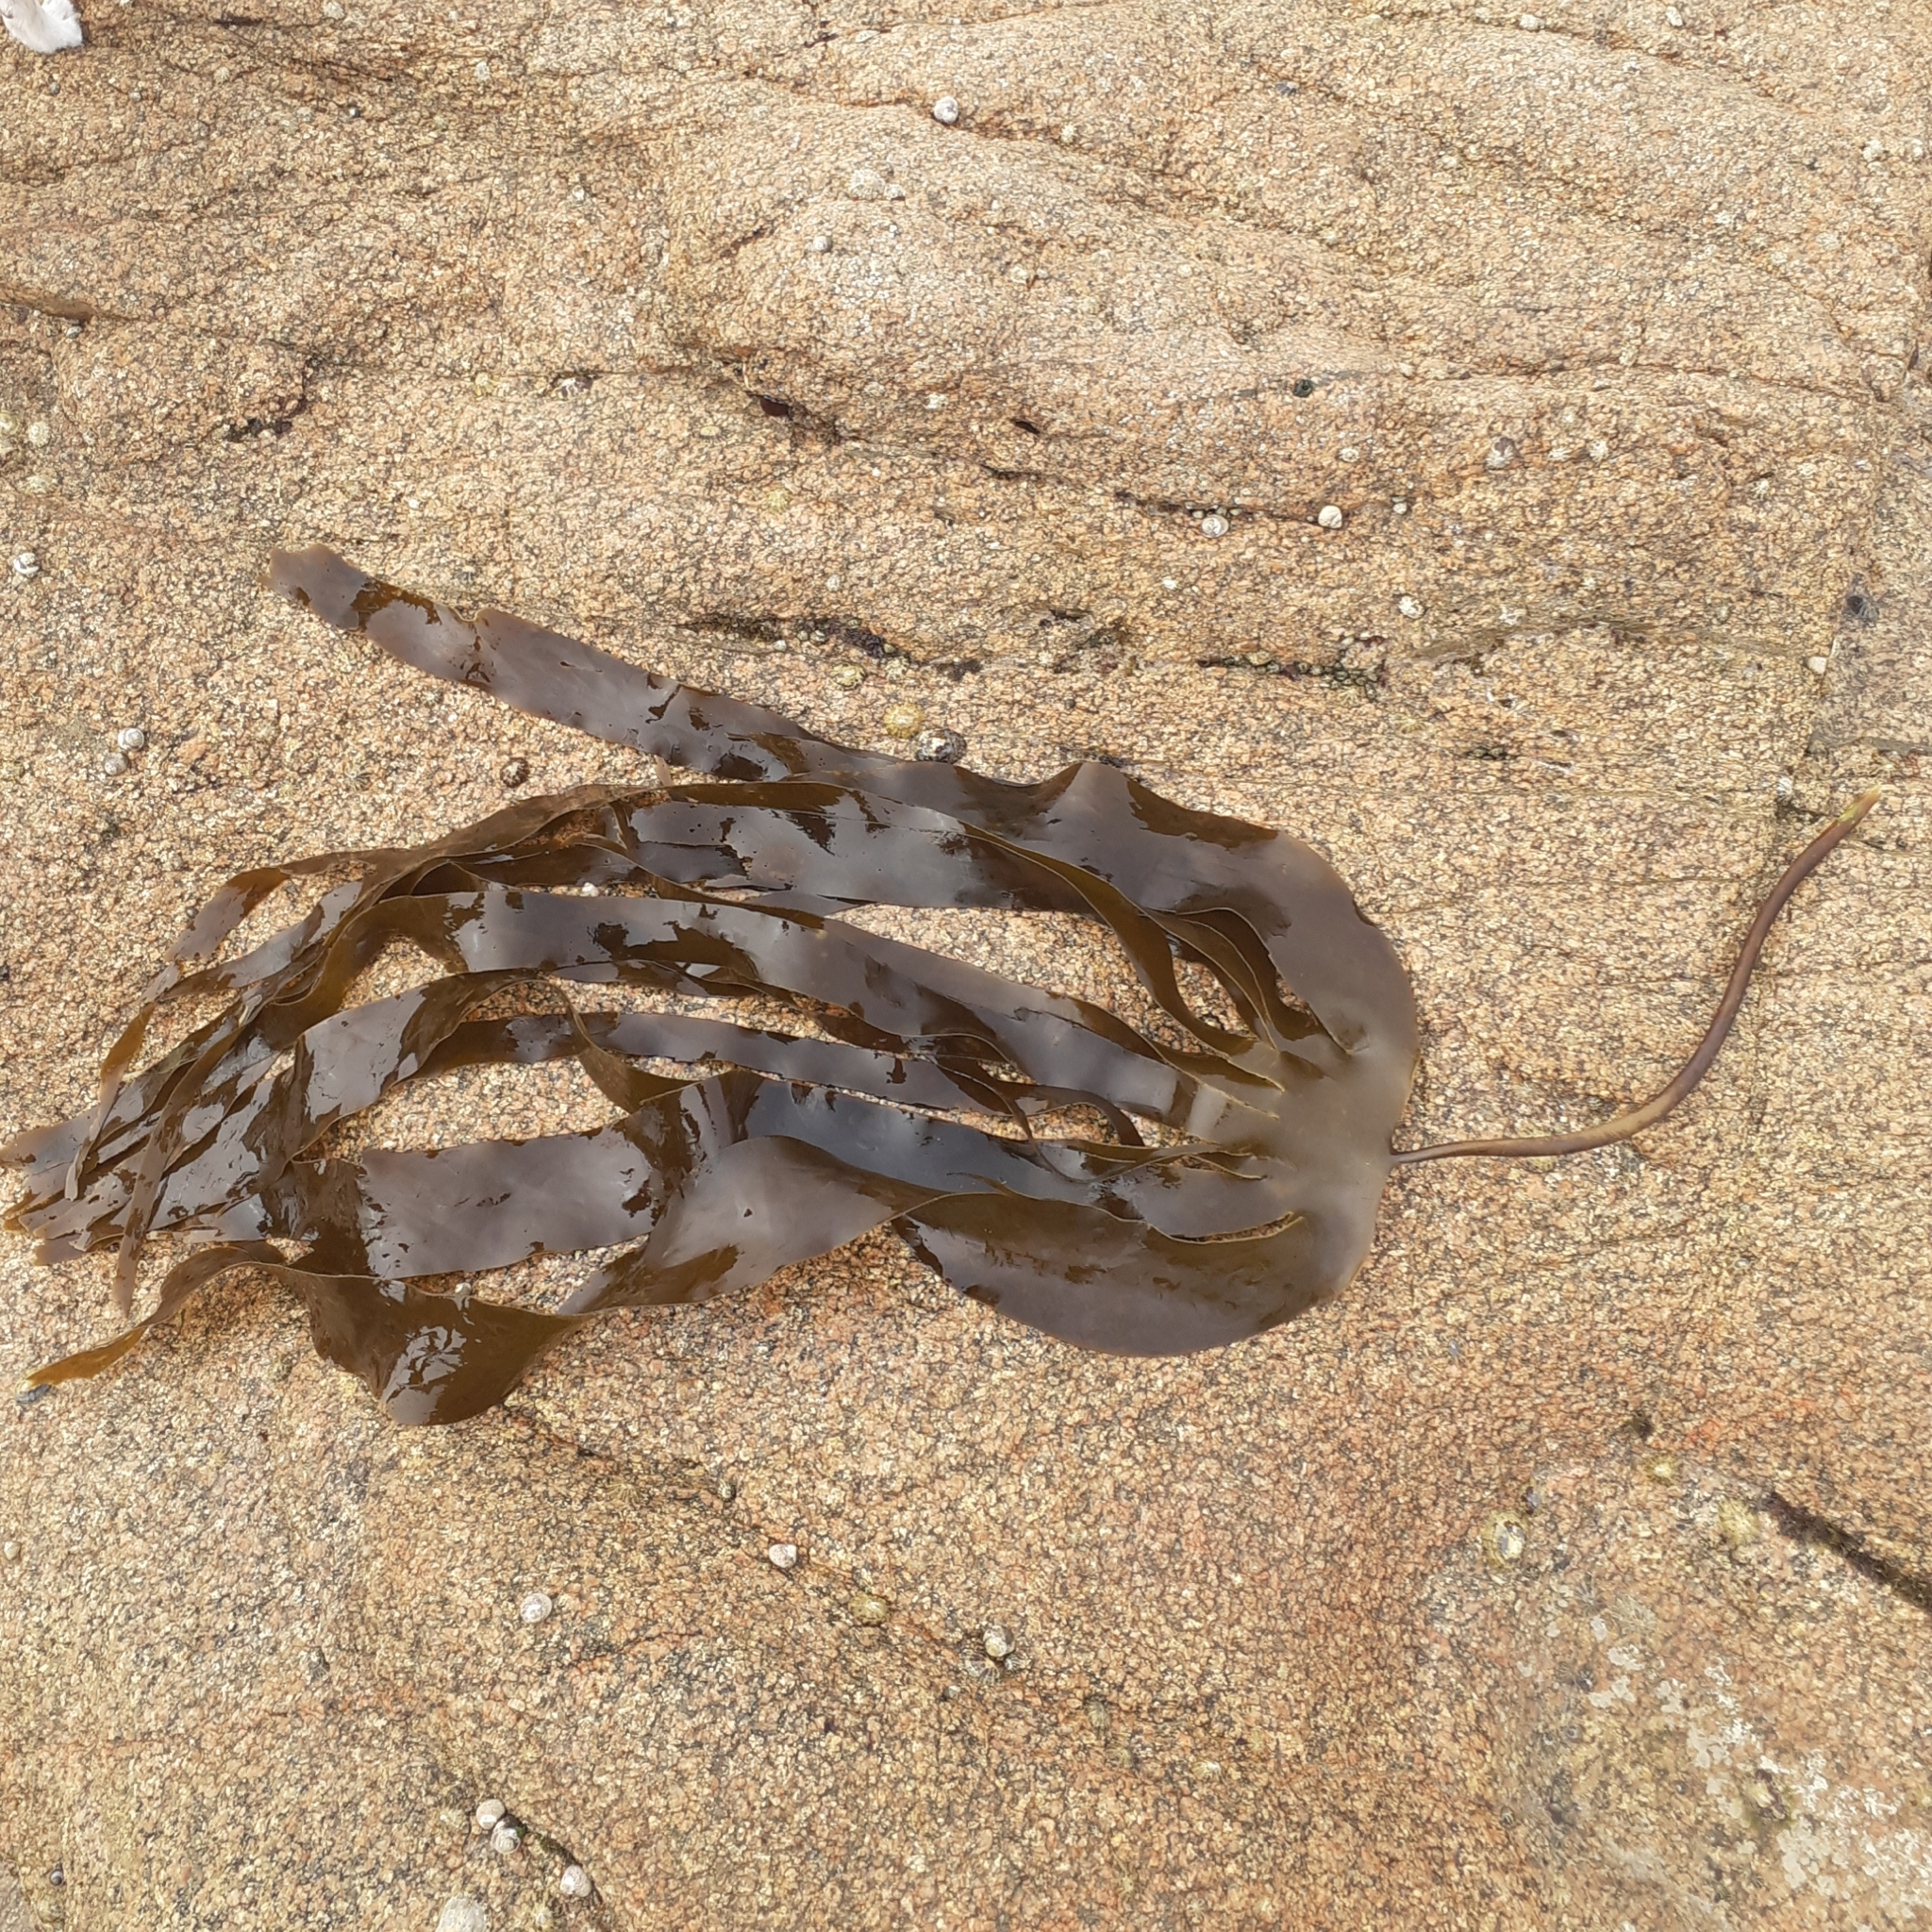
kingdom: Chromista
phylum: Ochrophyta
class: Phaeophyceae
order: Laminariales
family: Laminariaceae
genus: Laminaria
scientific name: Laminaria digitata
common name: Oarweed
